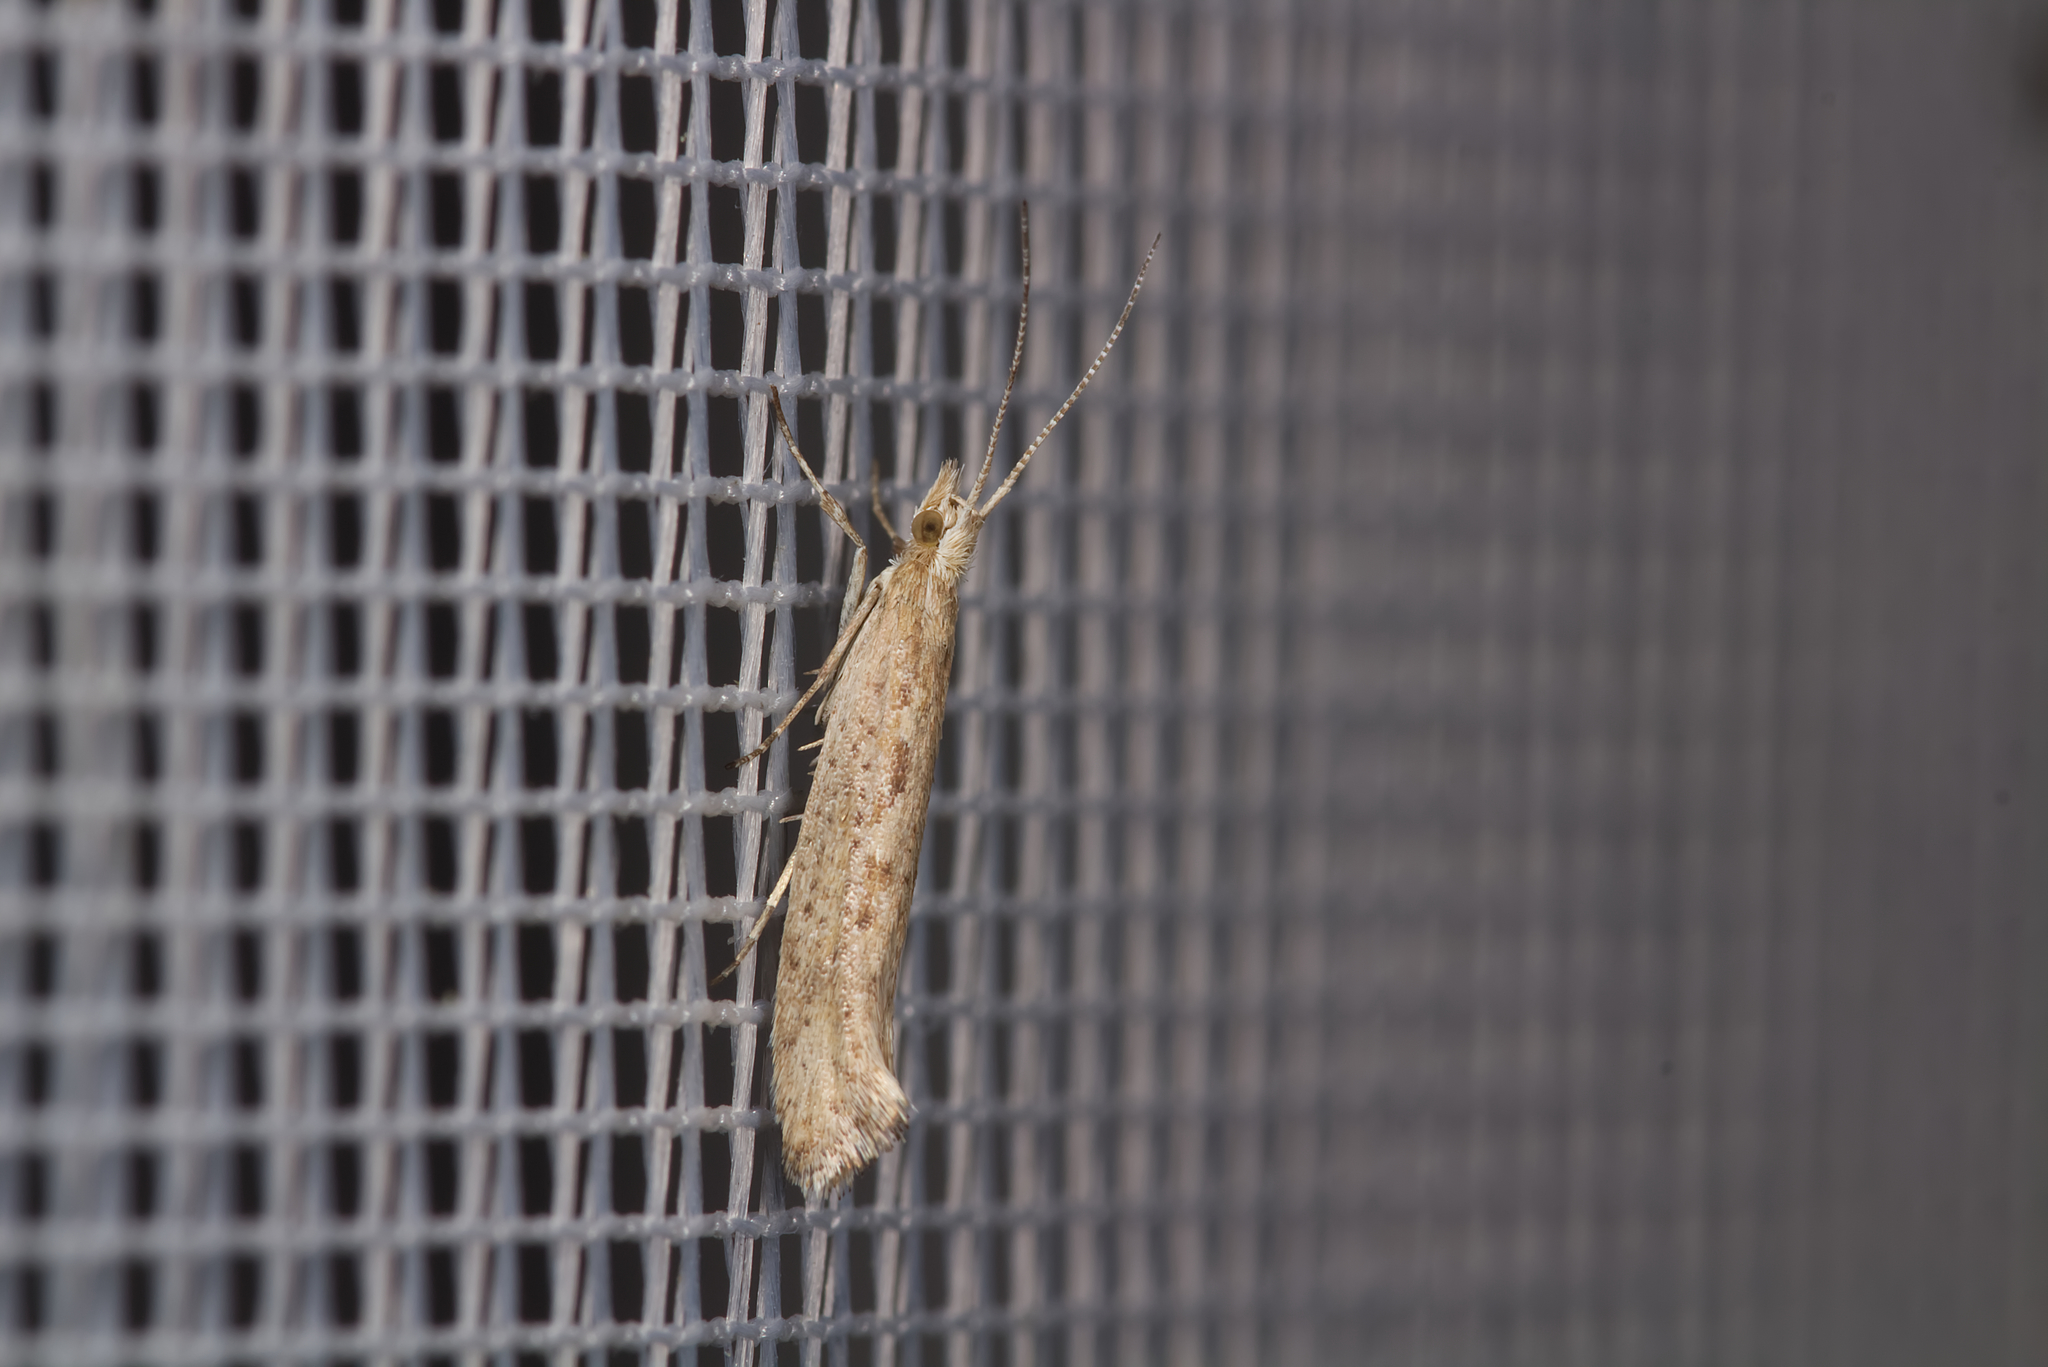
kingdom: Animalia
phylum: Arthropoda
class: Insecta
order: Lepidoptera
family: Plutellidae
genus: Plutella
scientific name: Plutella xylostella
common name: Diamond-back moth
